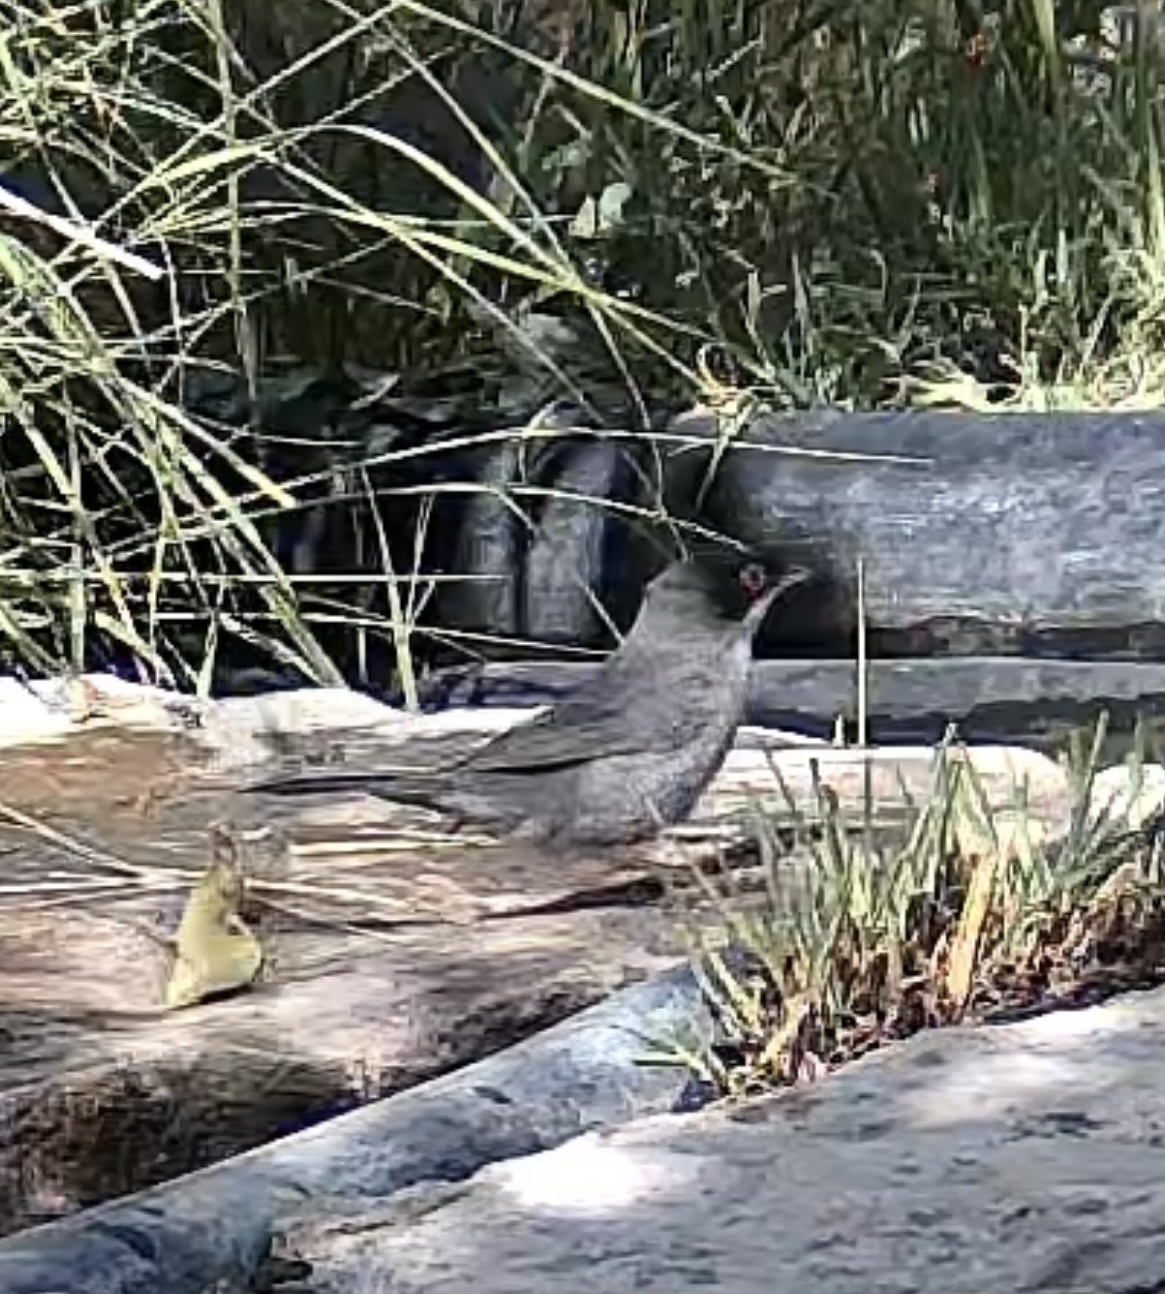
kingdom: Animalia
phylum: Chordata
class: Aves
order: Passeriformes
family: Sylviidae
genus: Curruca
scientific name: Curruca melanocephala
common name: Sardinian warbler
